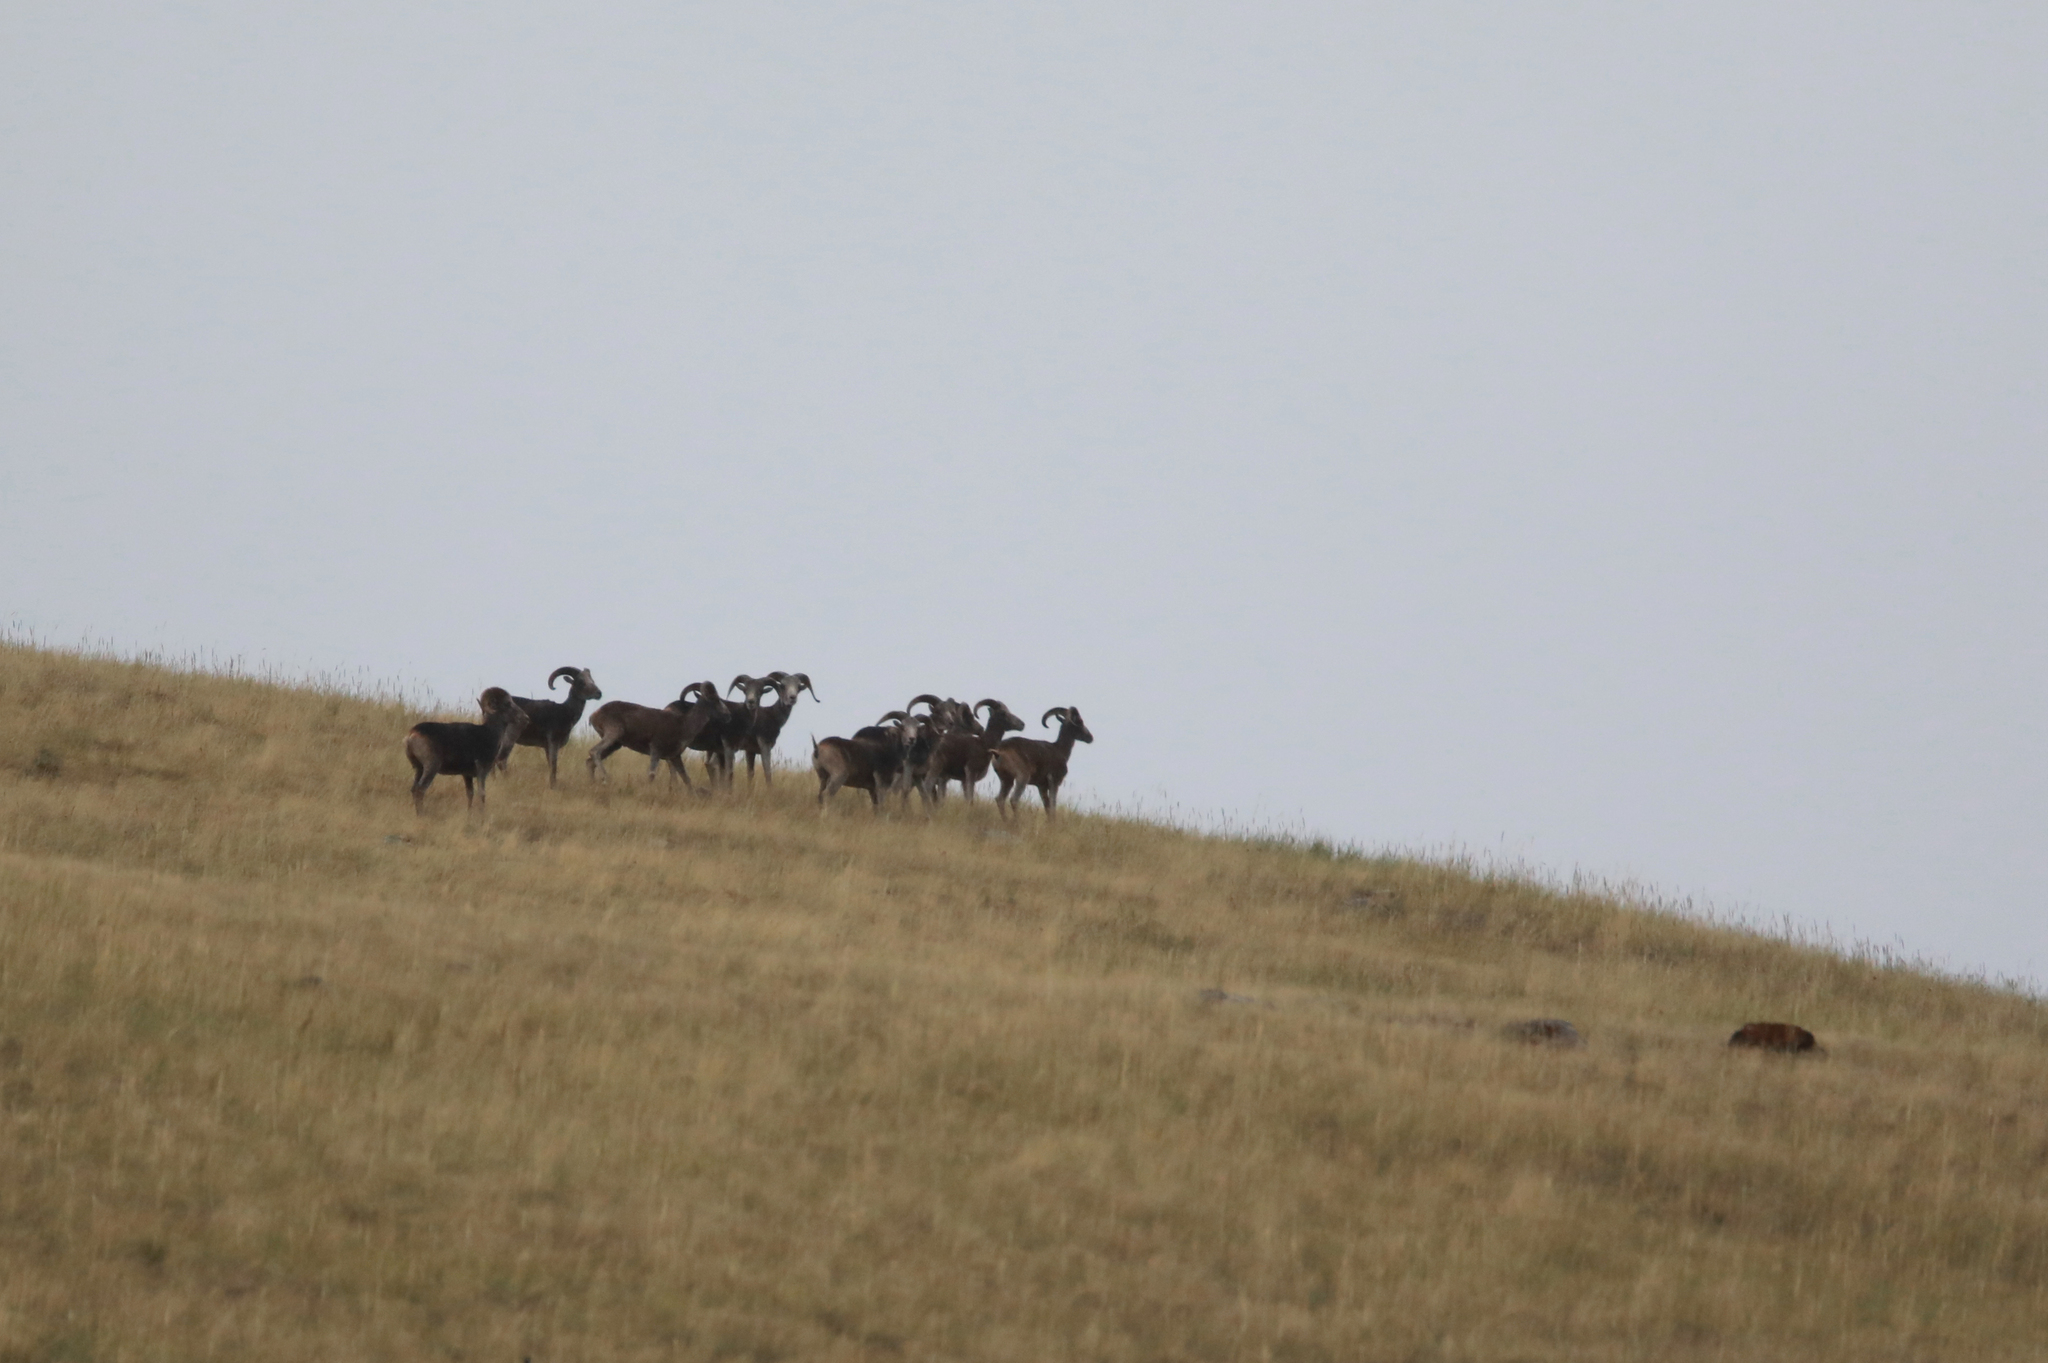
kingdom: Animalia
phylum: Chordata
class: Mammalia
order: Artiodactyla
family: Bovidae
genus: Ovis
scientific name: Ovis ammon
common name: Argali
